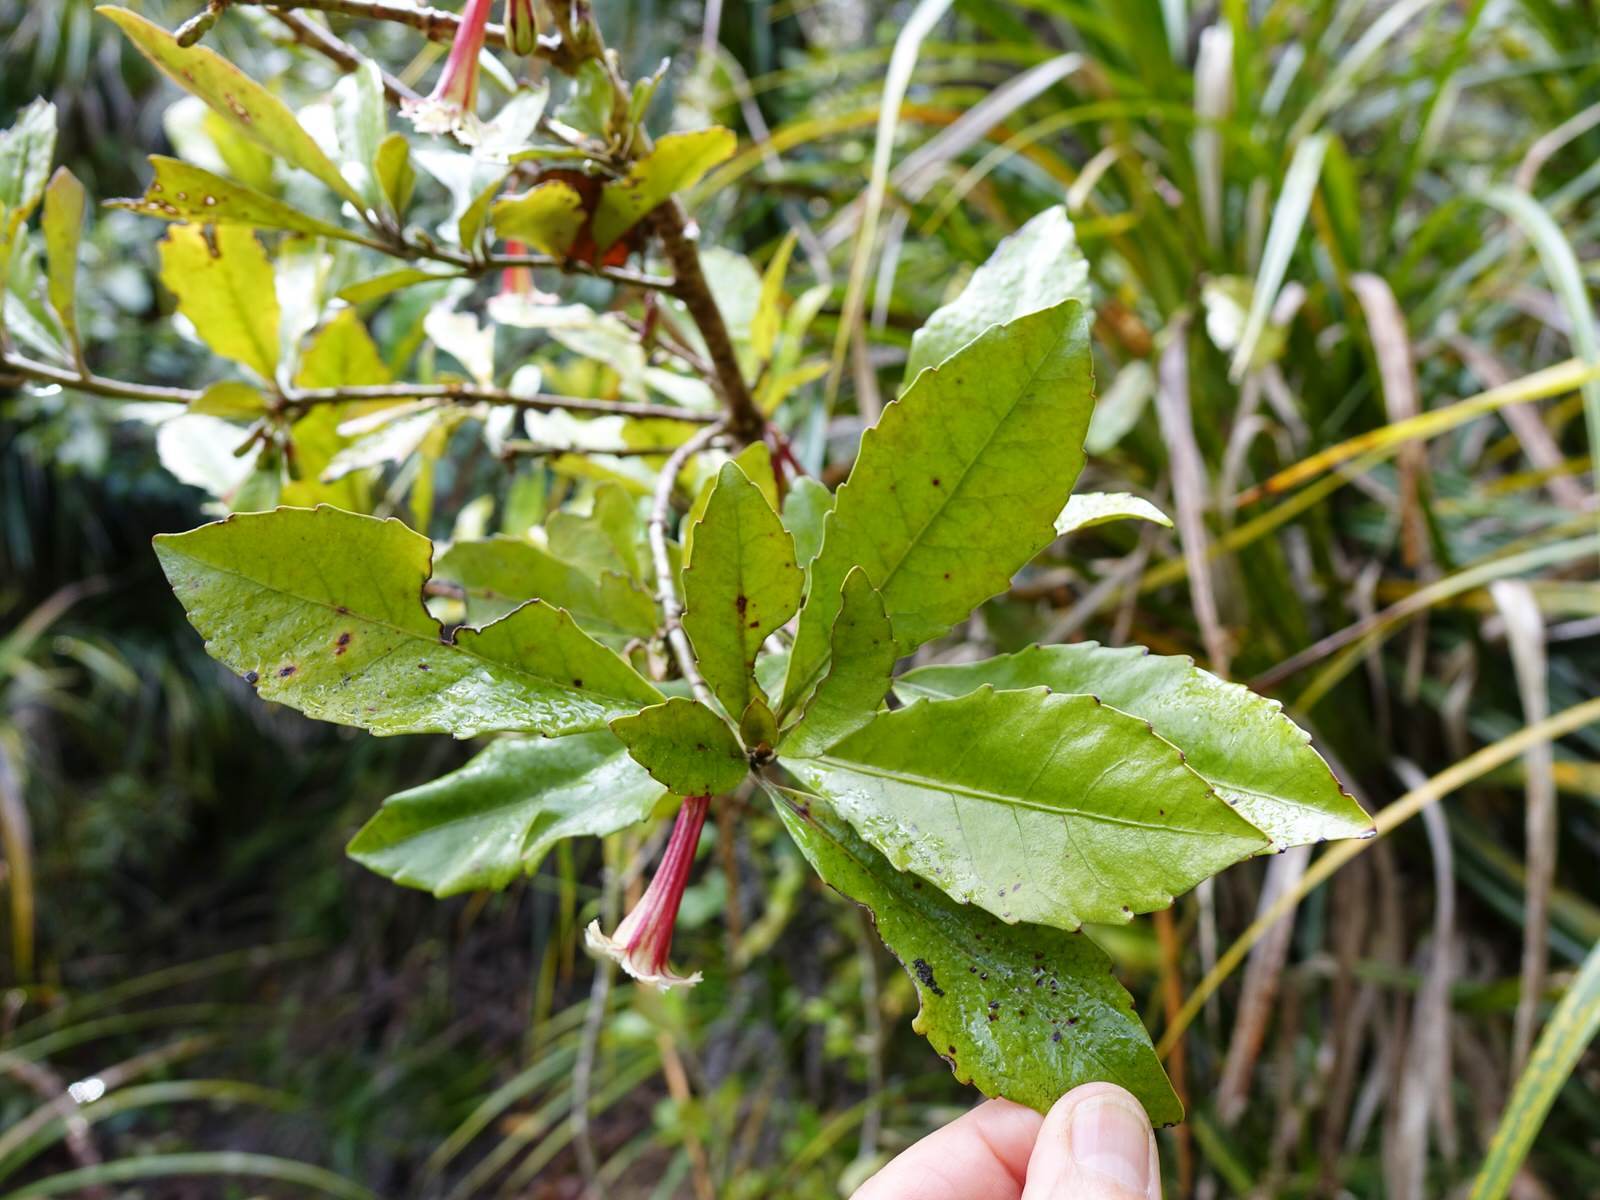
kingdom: Plantae
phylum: Tracheophyta
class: Magnoliopsida
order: Asterales
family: Alseuosmiaceae
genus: Alseuosmia
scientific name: Alseuosmia macrophylla
